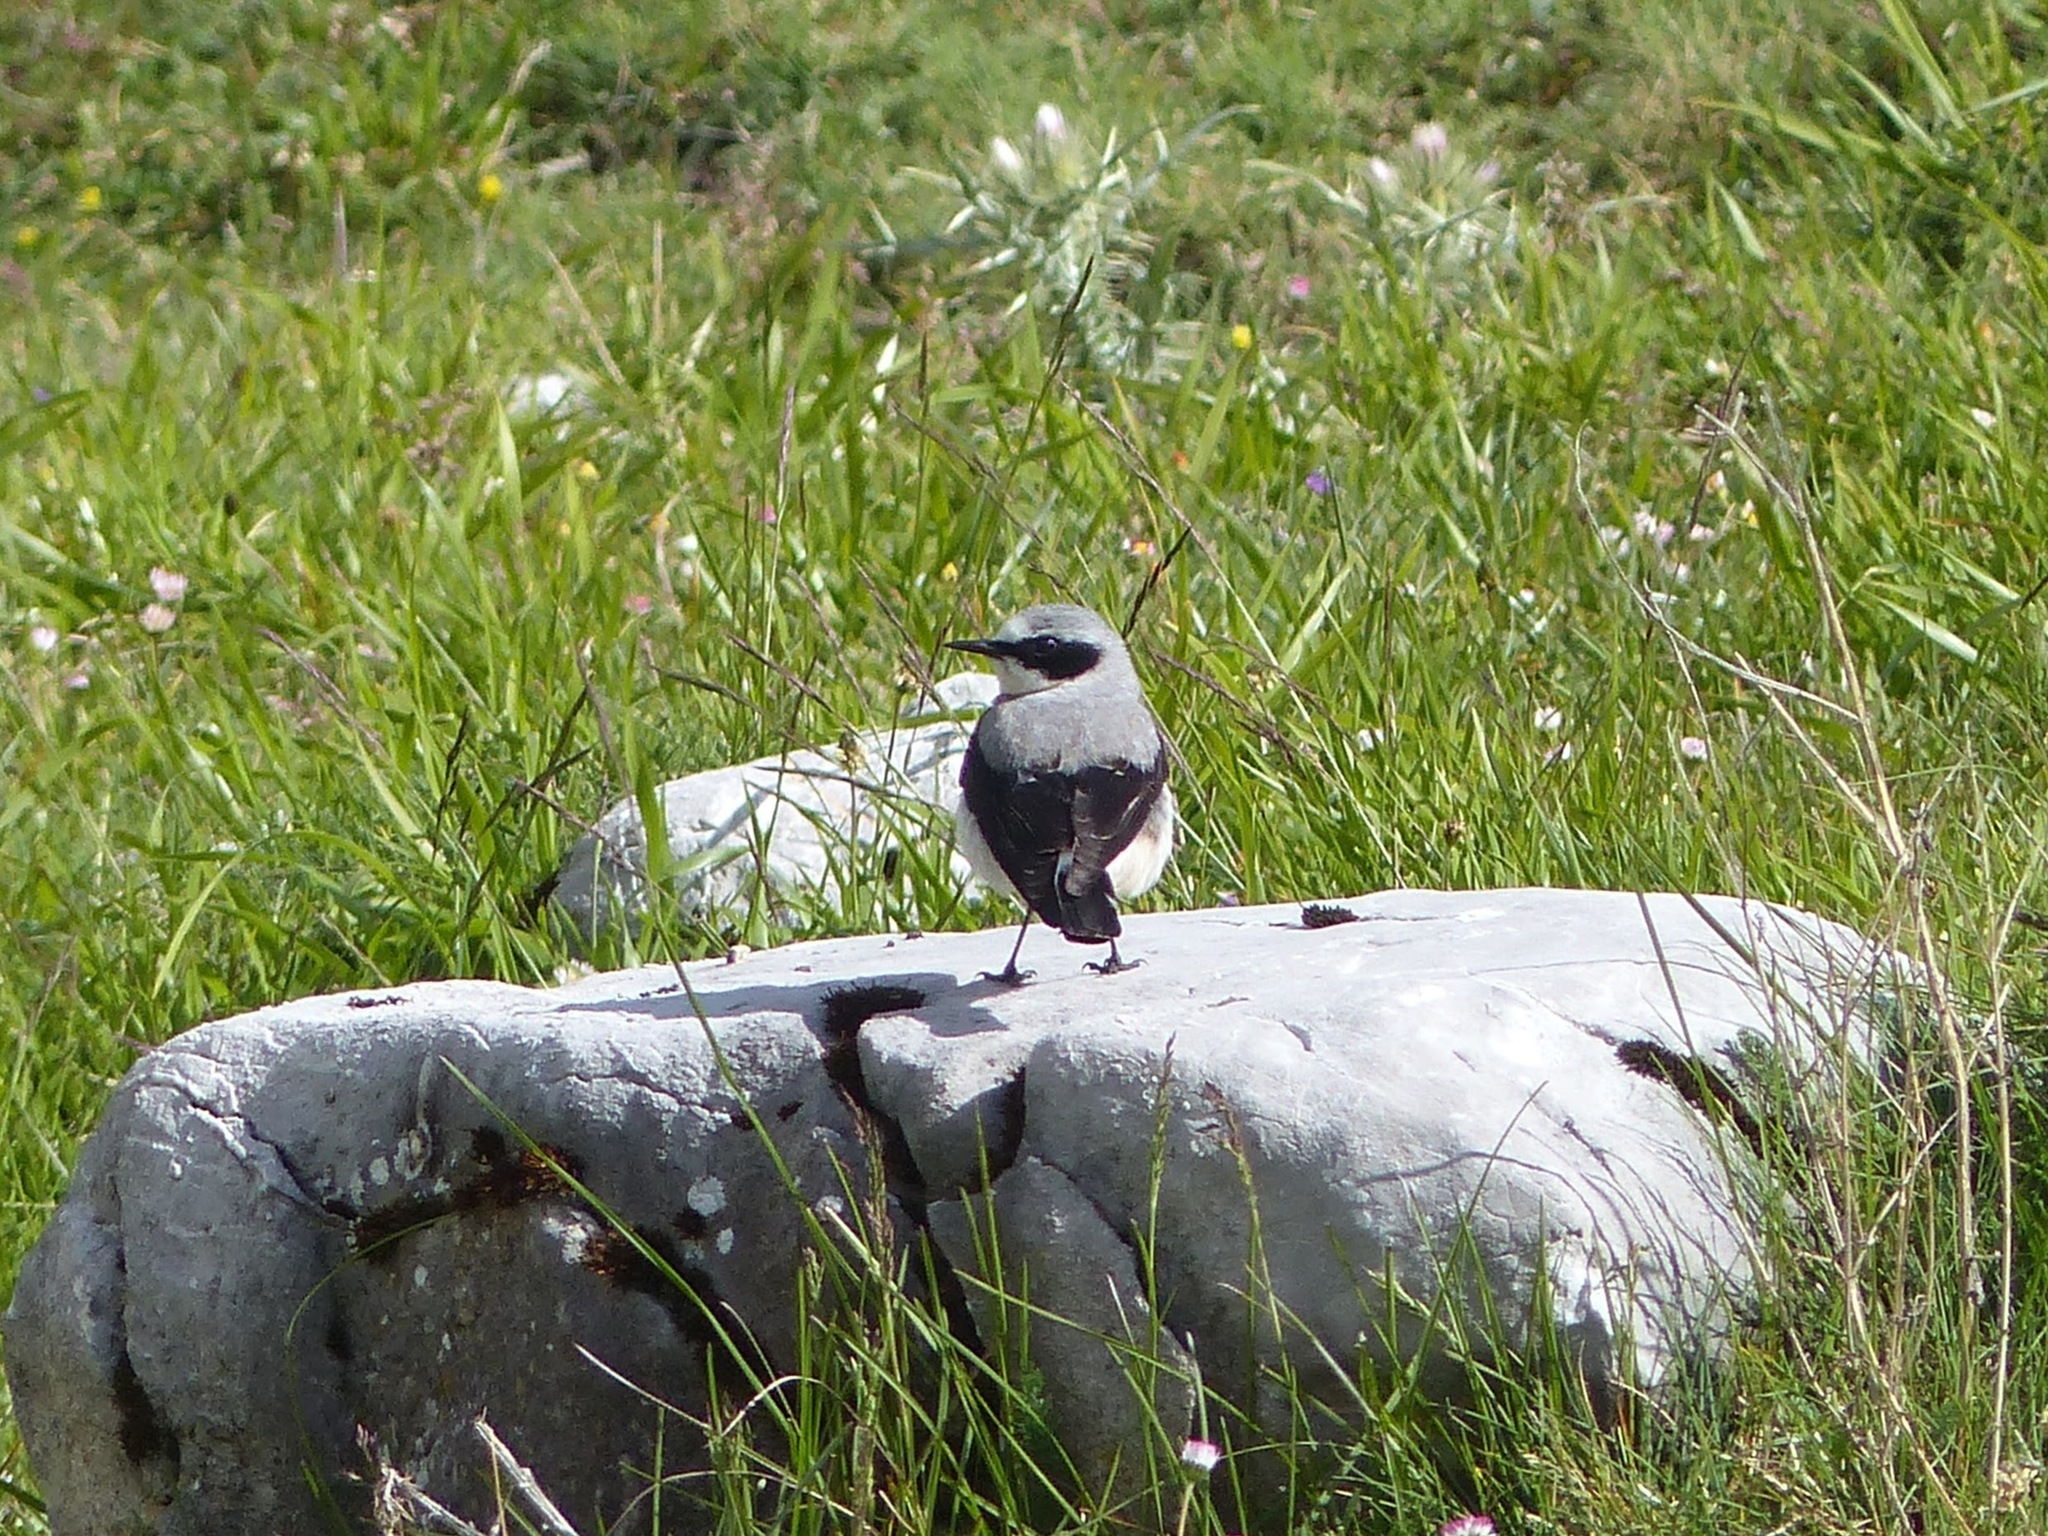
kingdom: Animalia
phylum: Chordata
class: Aves
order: Passeriformes
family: Muscicapidae
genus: Oenanthe
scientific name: Oenanthe oenanthe
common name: Northern wheatear
